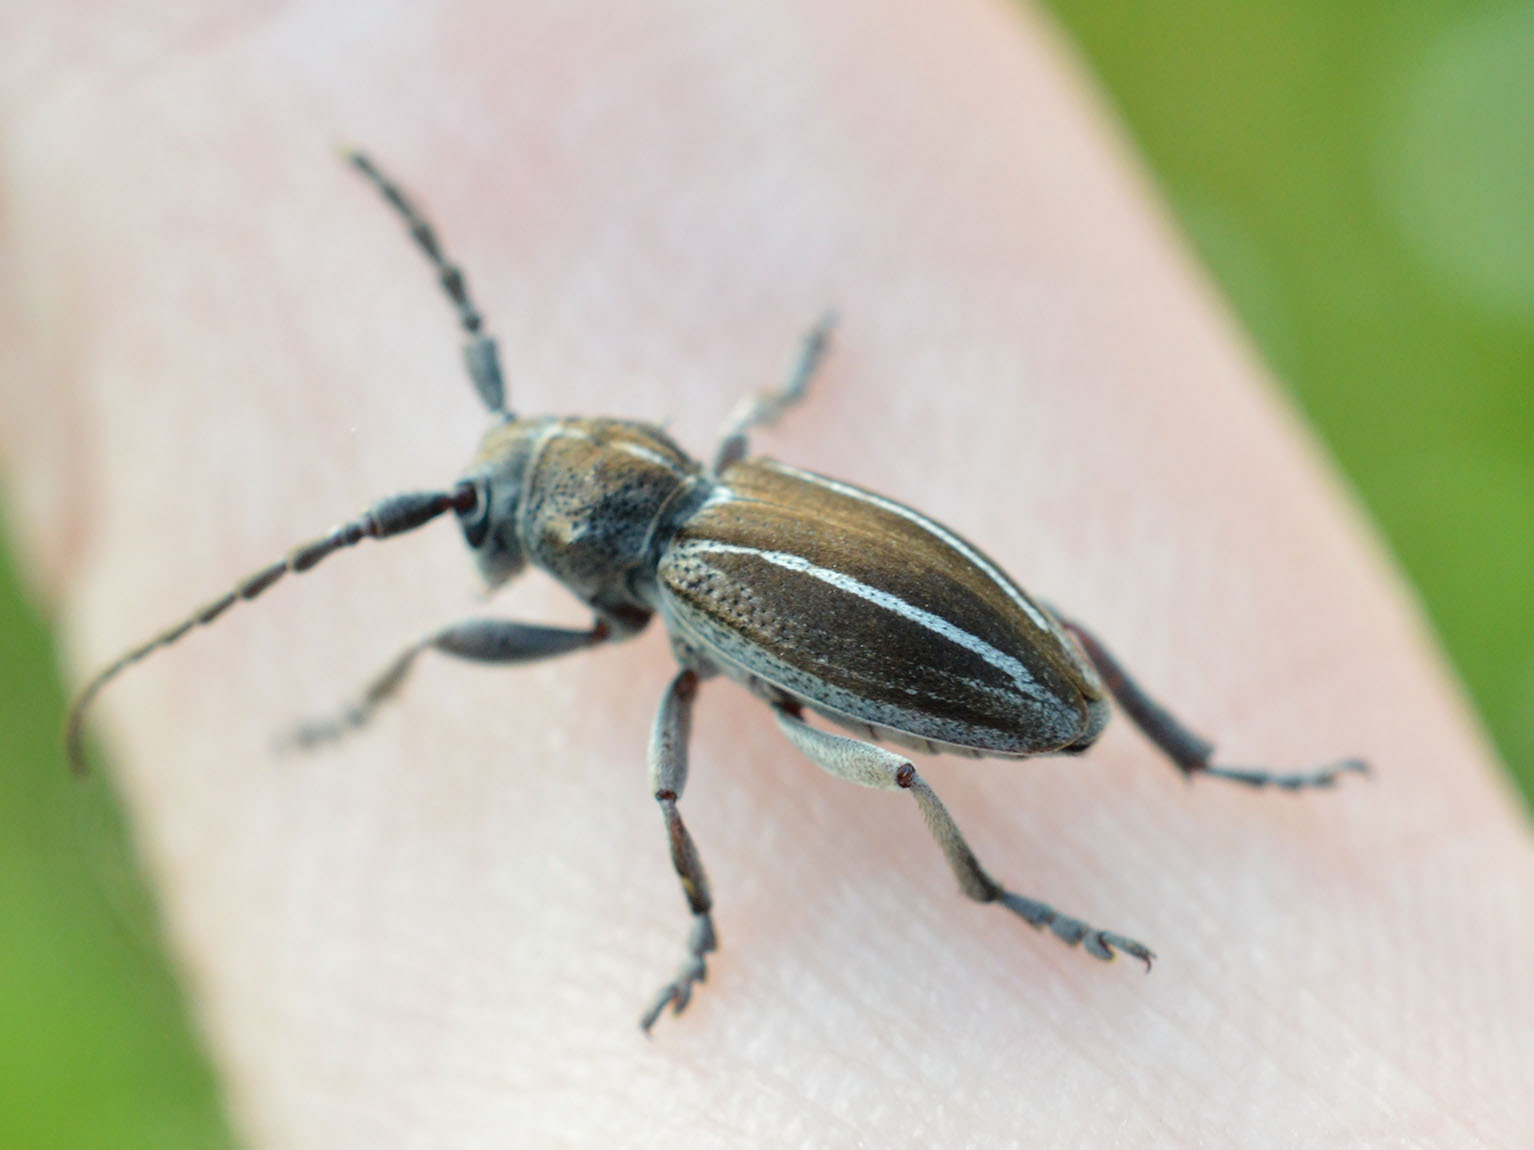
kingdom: Animalia
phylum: Arthropoda
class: Insecta
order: Coleoptera
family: Cerambycidae
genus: Neodorcadion
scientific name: Neodorcadion bilineatum
